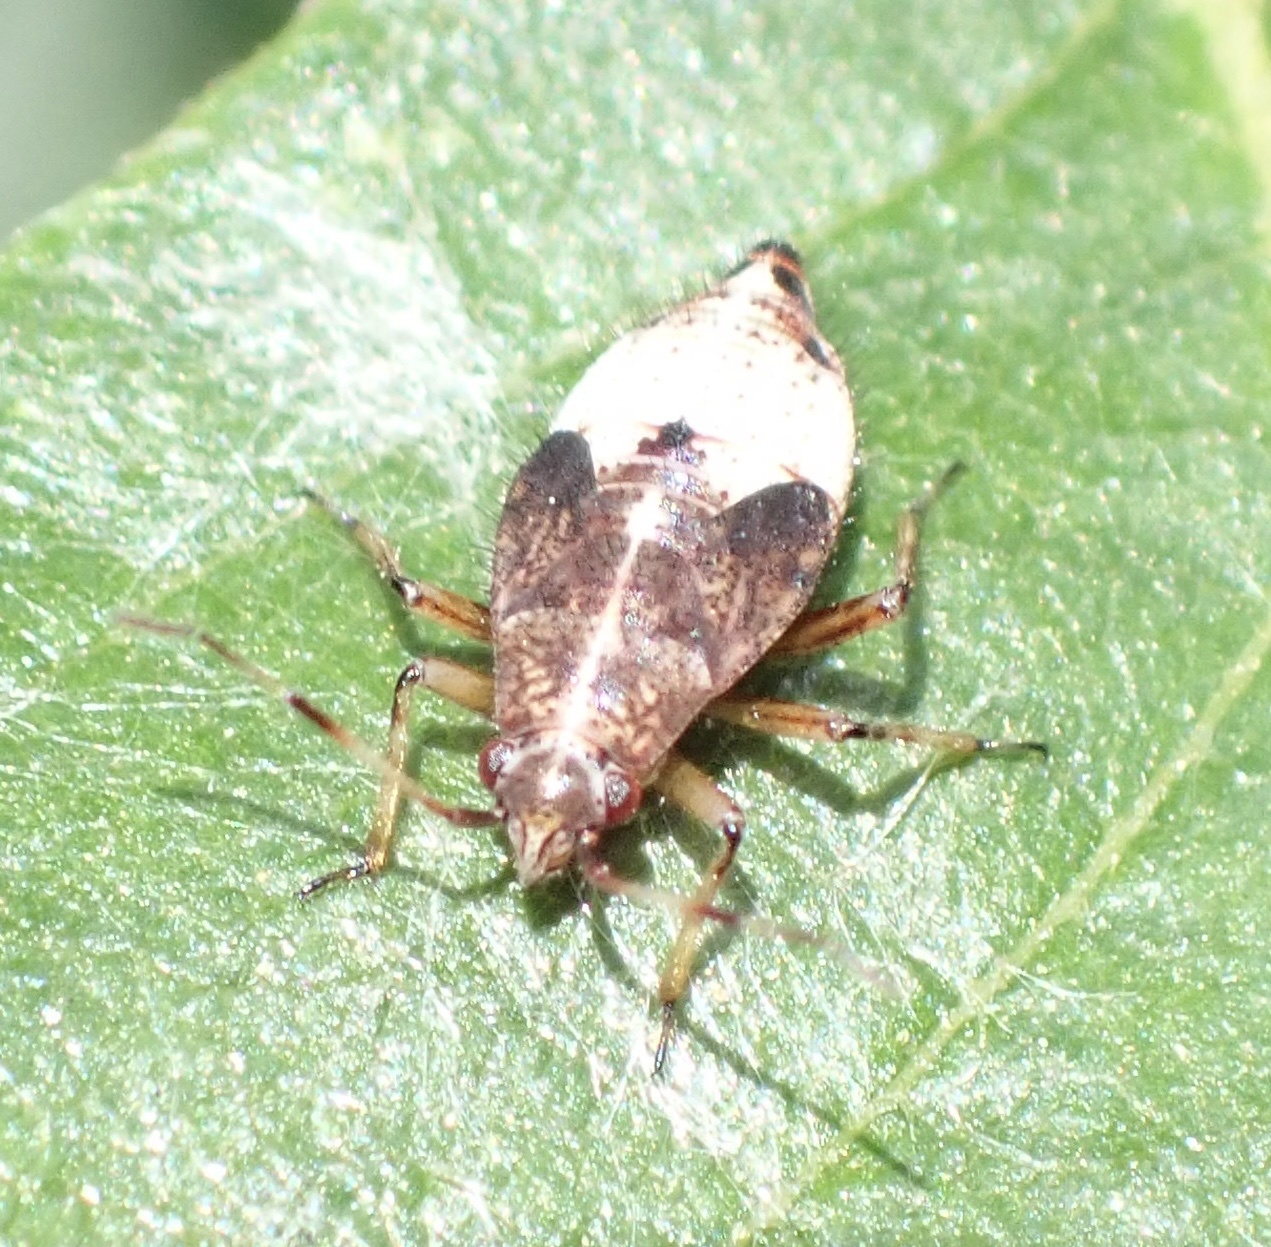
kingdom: Animalia
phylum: Arthropoda
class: Insecta
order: Hemiptera
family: Miridae
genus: Deraeocoris
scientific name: Deraeocoris flavilinea
